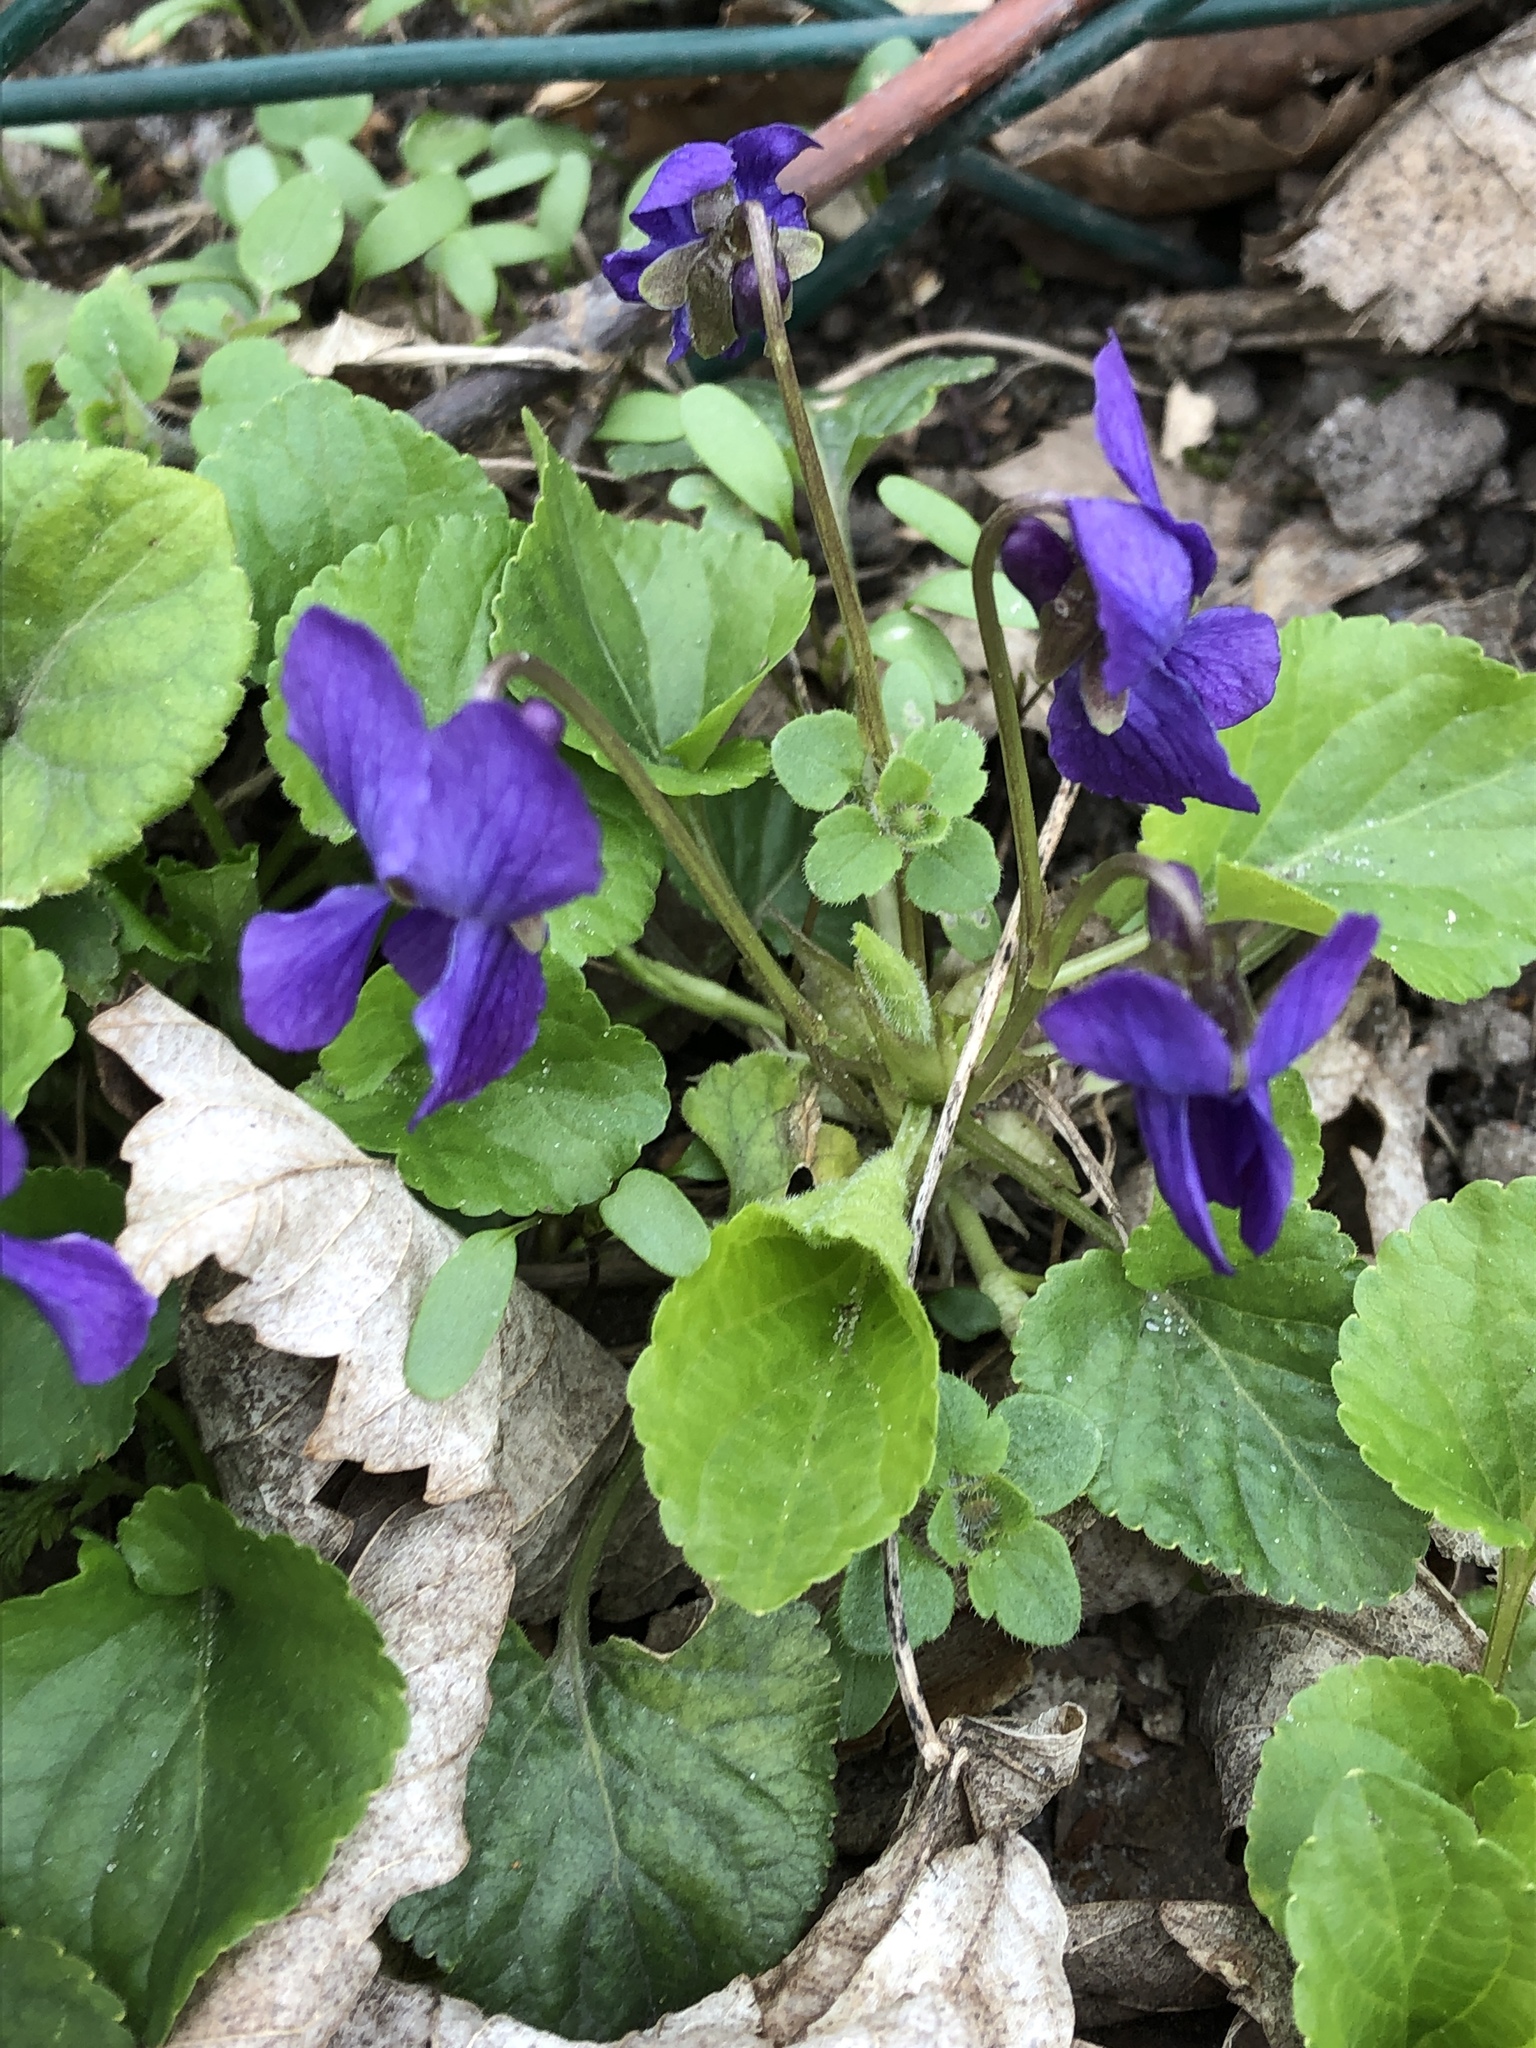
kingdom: Plantae
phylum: Tracheophyta
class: Magnoliopsida
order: Malpighiales
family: Violaceae
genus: Viola
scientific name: Viola odorata
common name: Sweet violet
